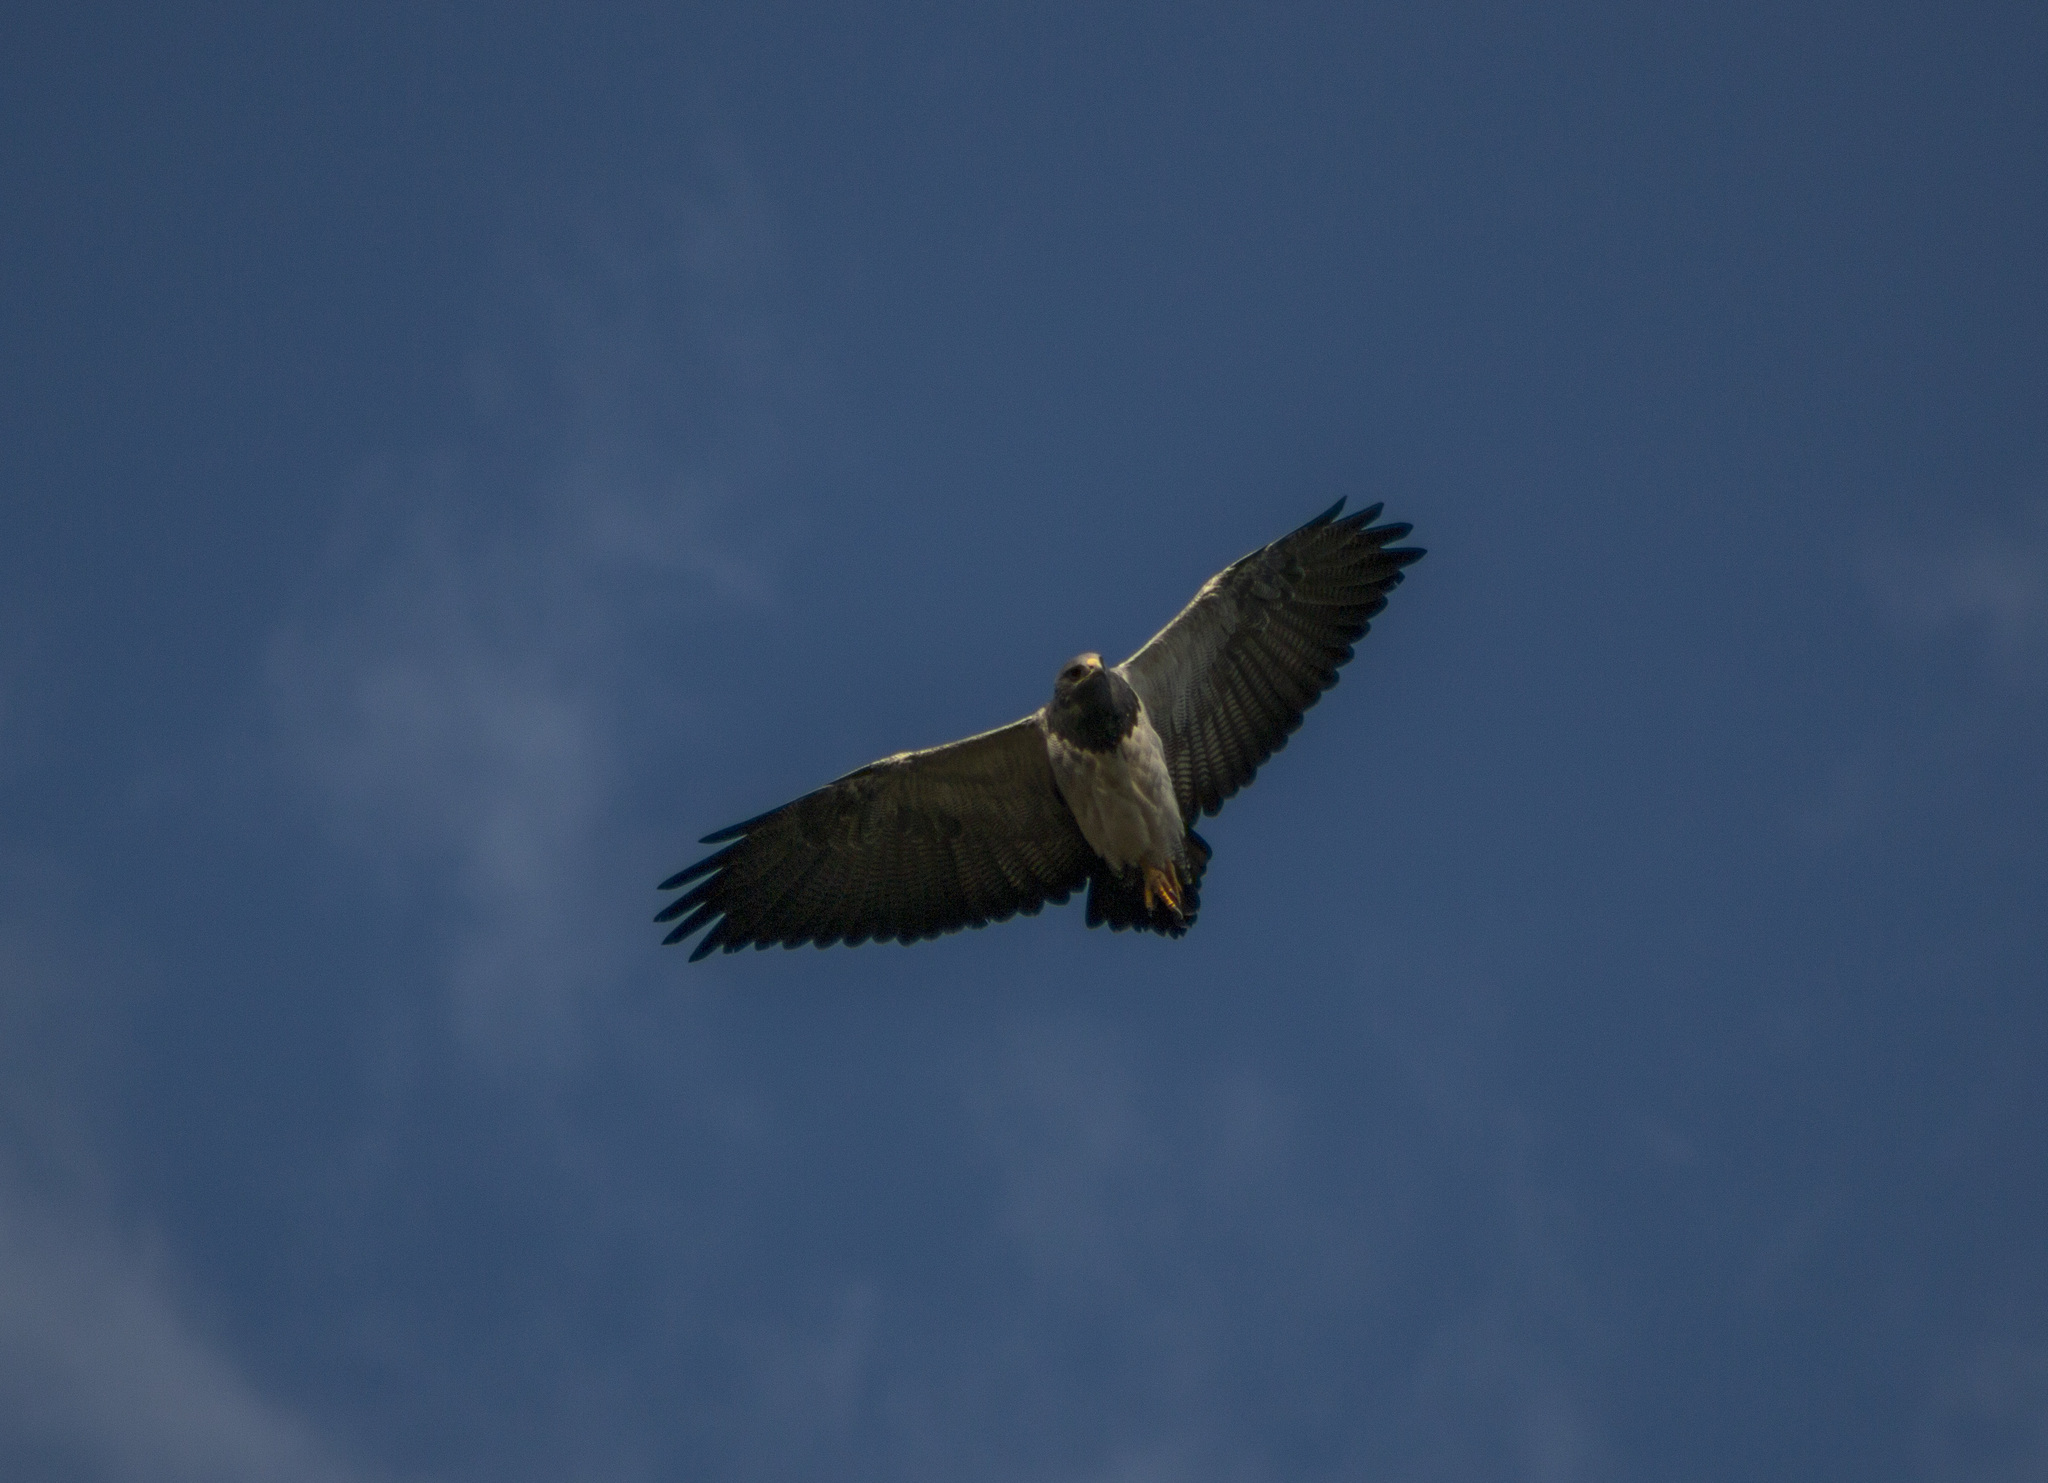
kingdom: Animalia
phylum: Chordata
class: Aves
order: Accipitriformes
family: Accipitridae
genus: Geranoaetus
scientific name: Geranoaetus melanoleucus
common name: Black-chested buzzard-eagle
